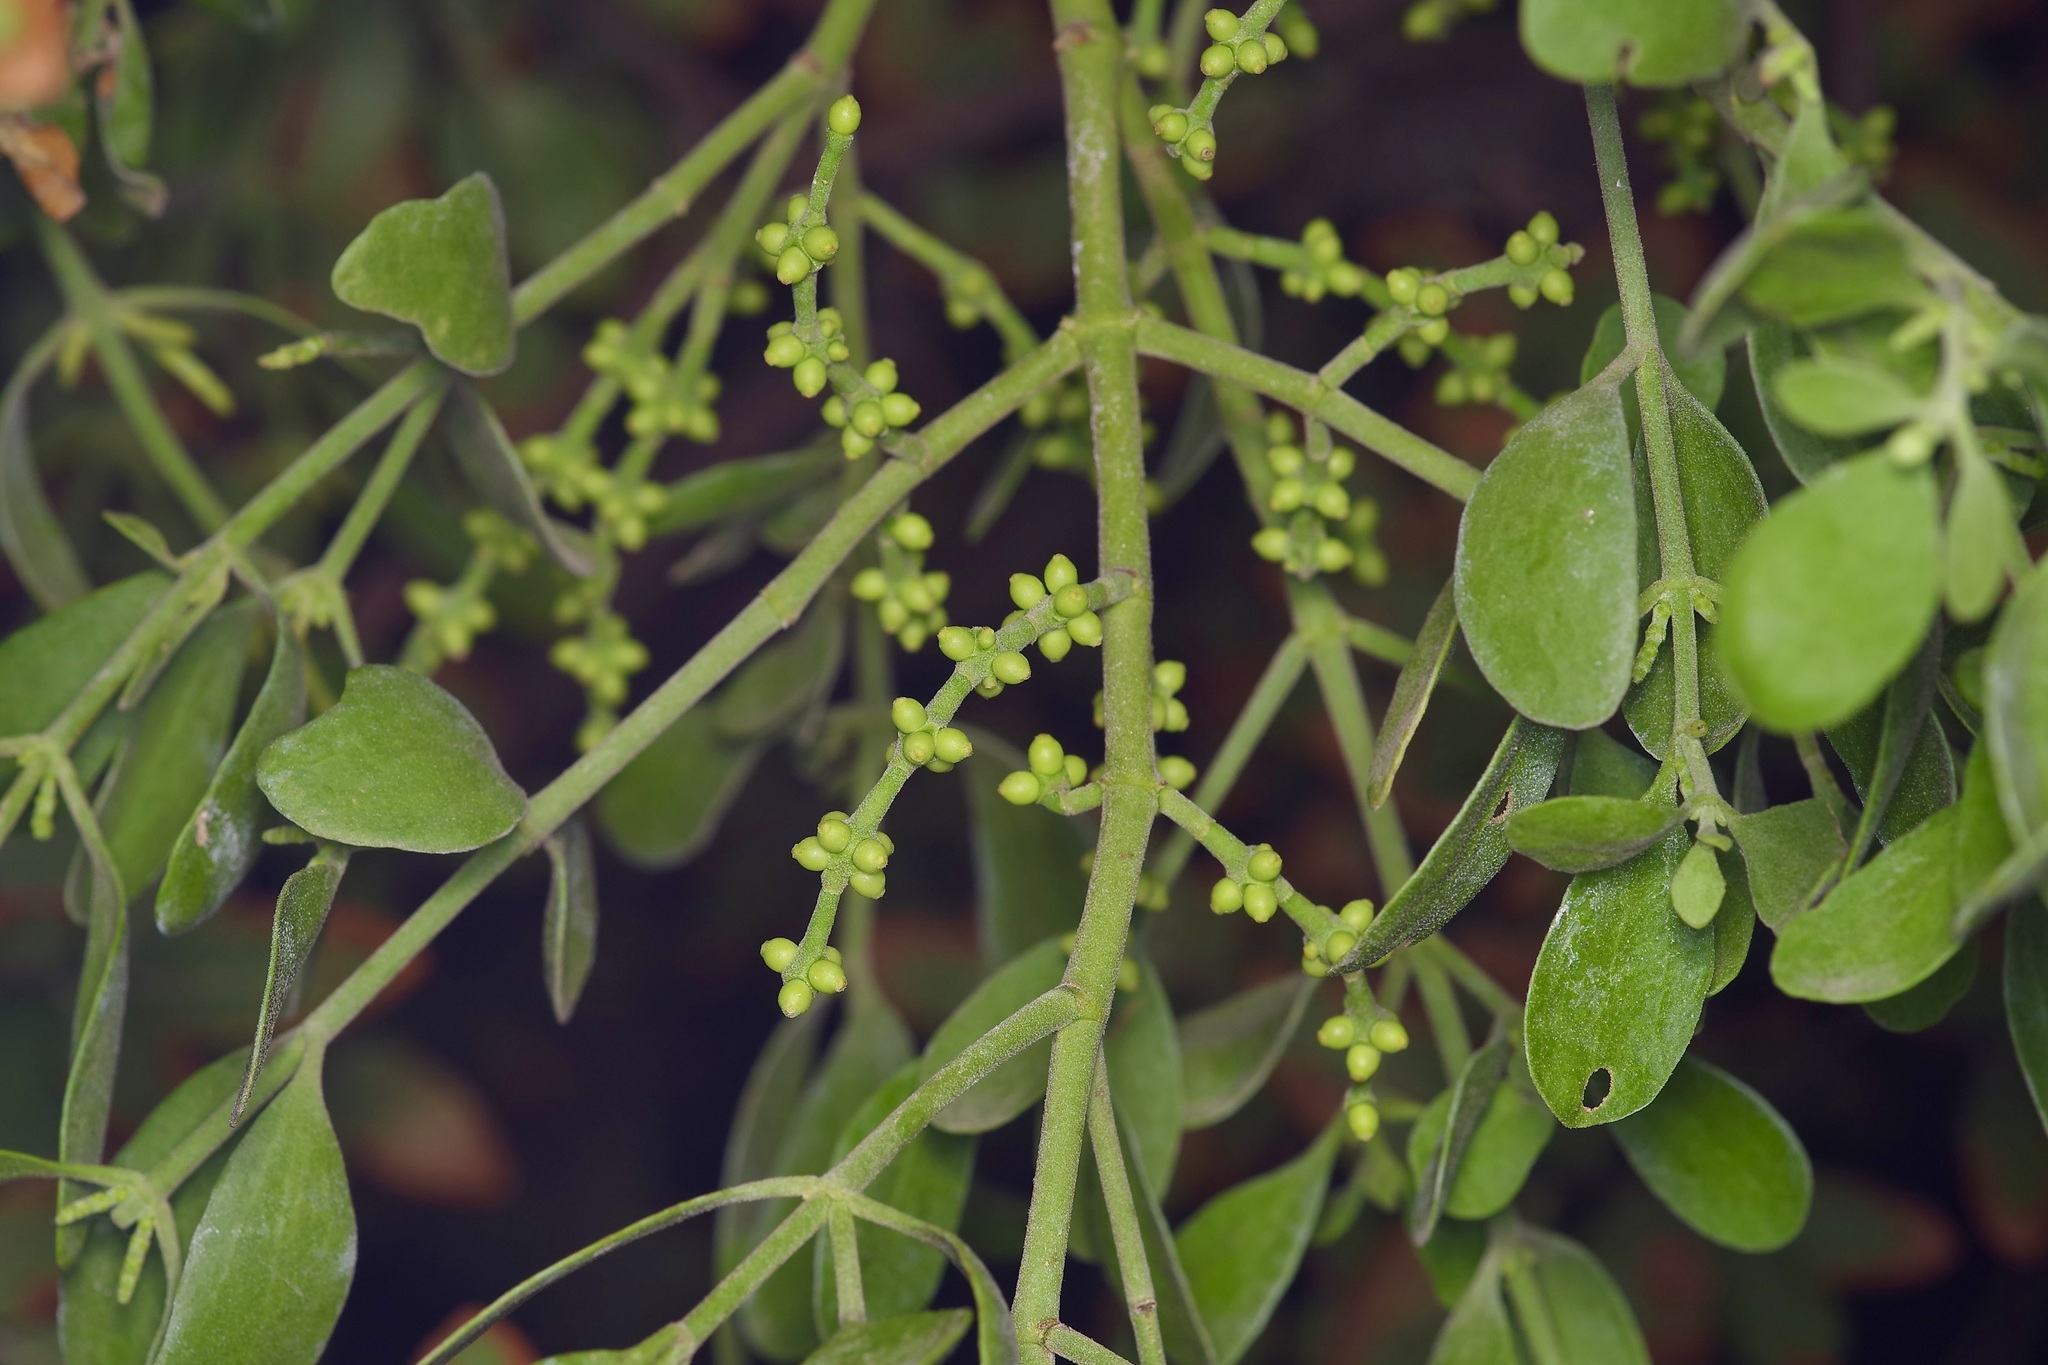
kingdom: Plantae
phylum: Tracheophyta
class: Magnoliopsida
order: Santalales
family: Viscaceae
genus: Phoradendron
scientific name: Phoradendron leucarpum
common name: Pacific mistletoe
